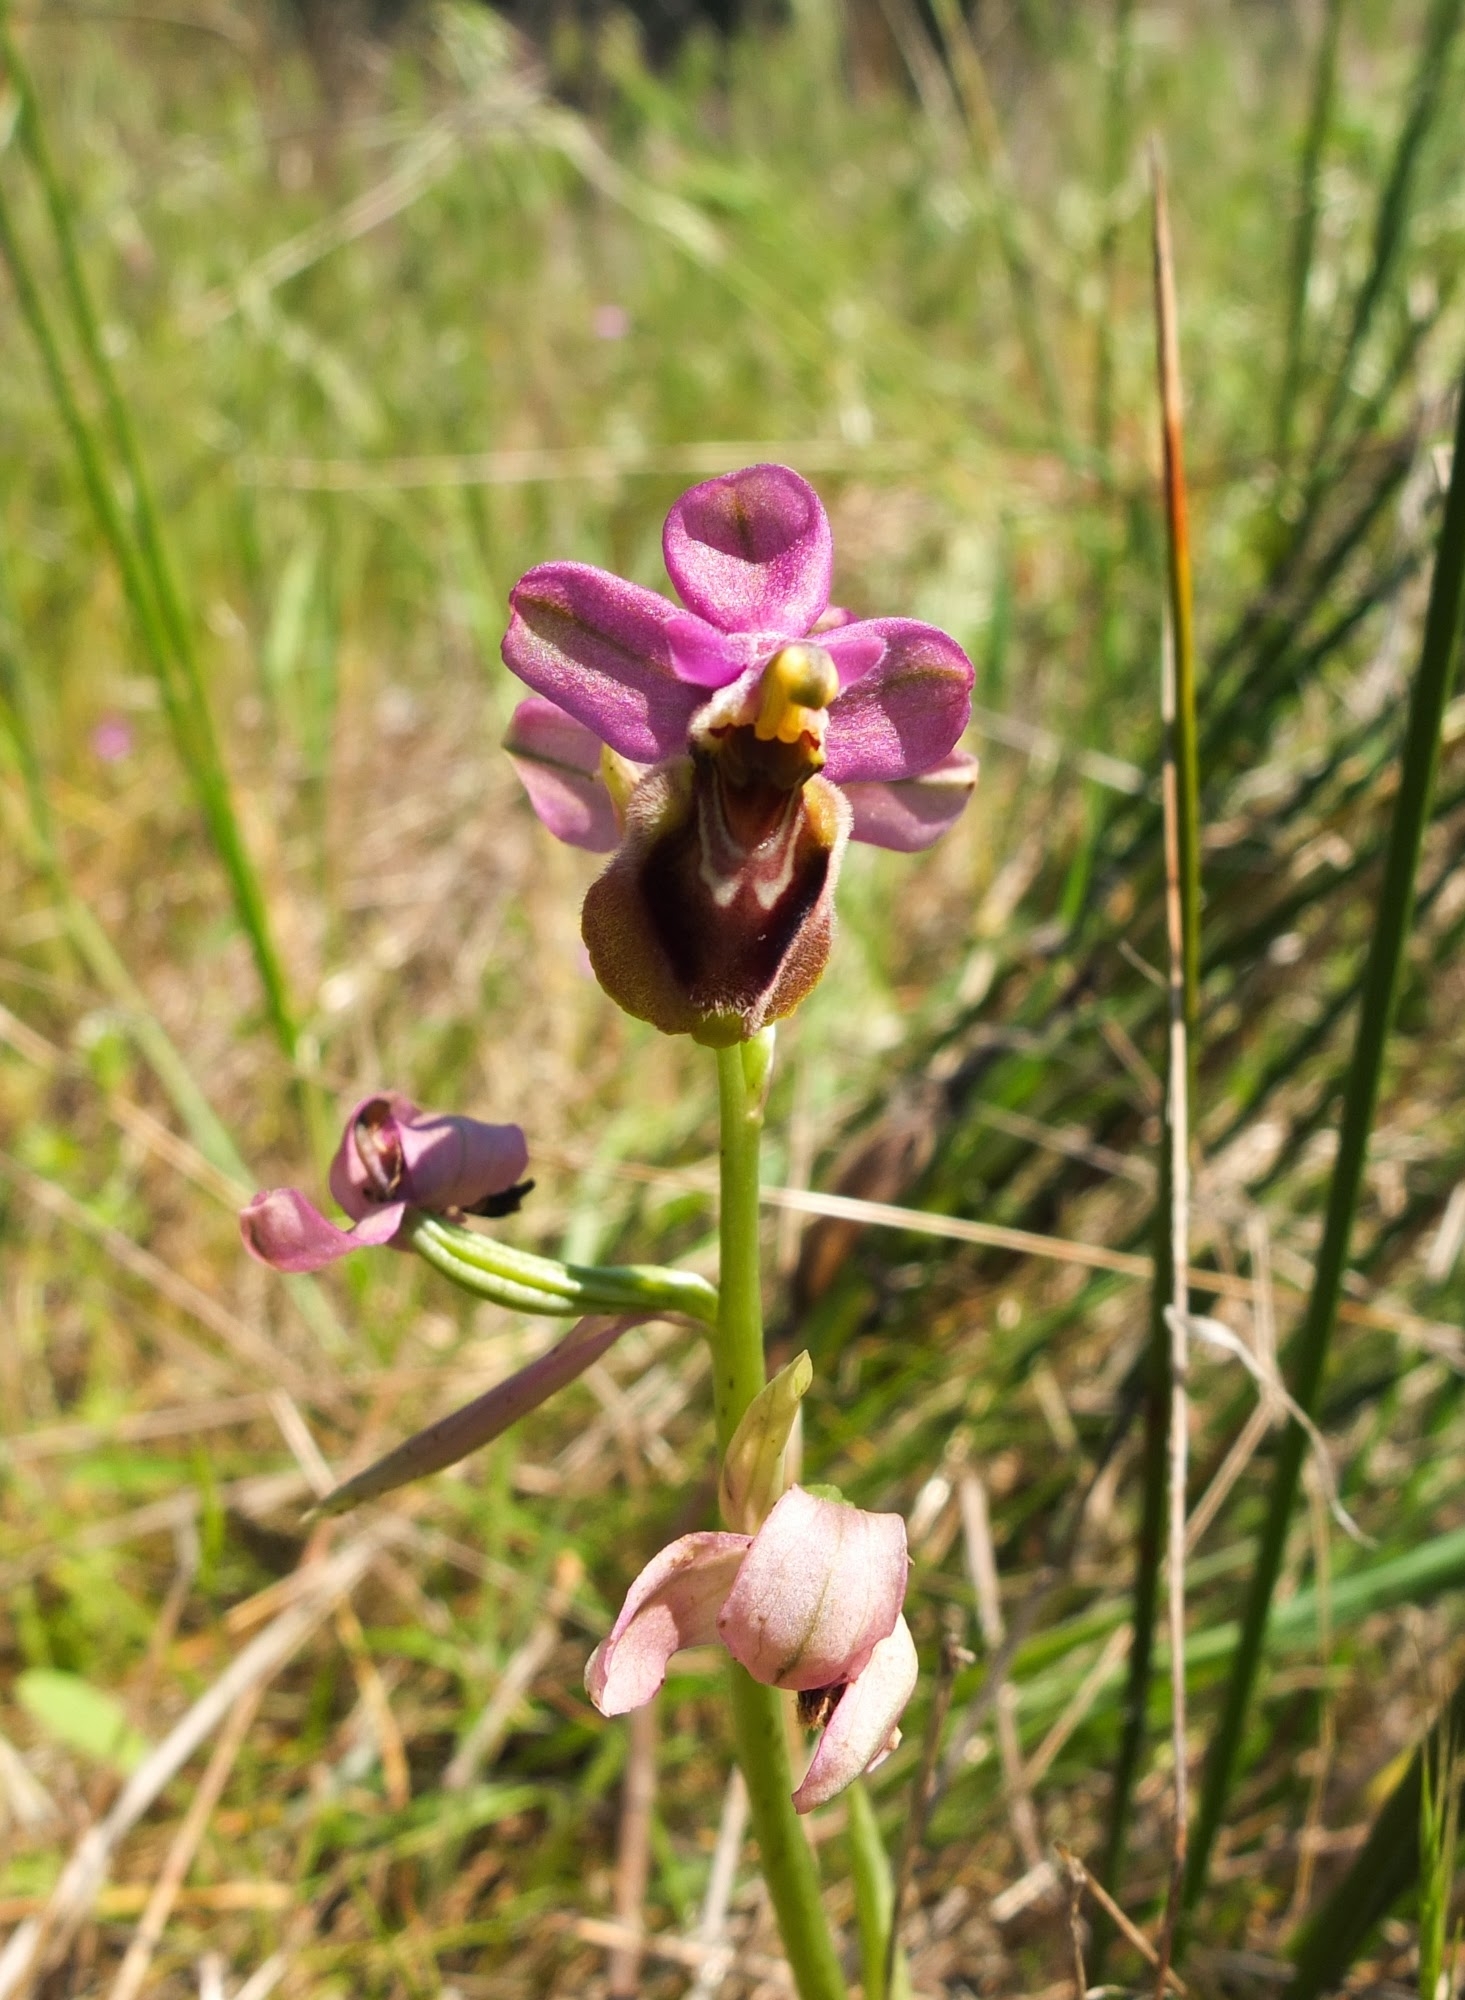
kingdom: Plantae
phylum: Tracheophyta
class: Liliopsida
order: Asparagales
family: Orchidaceae
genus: Ophrys
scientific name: Ophrys tenthredinifera
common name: Sawfly orchid
